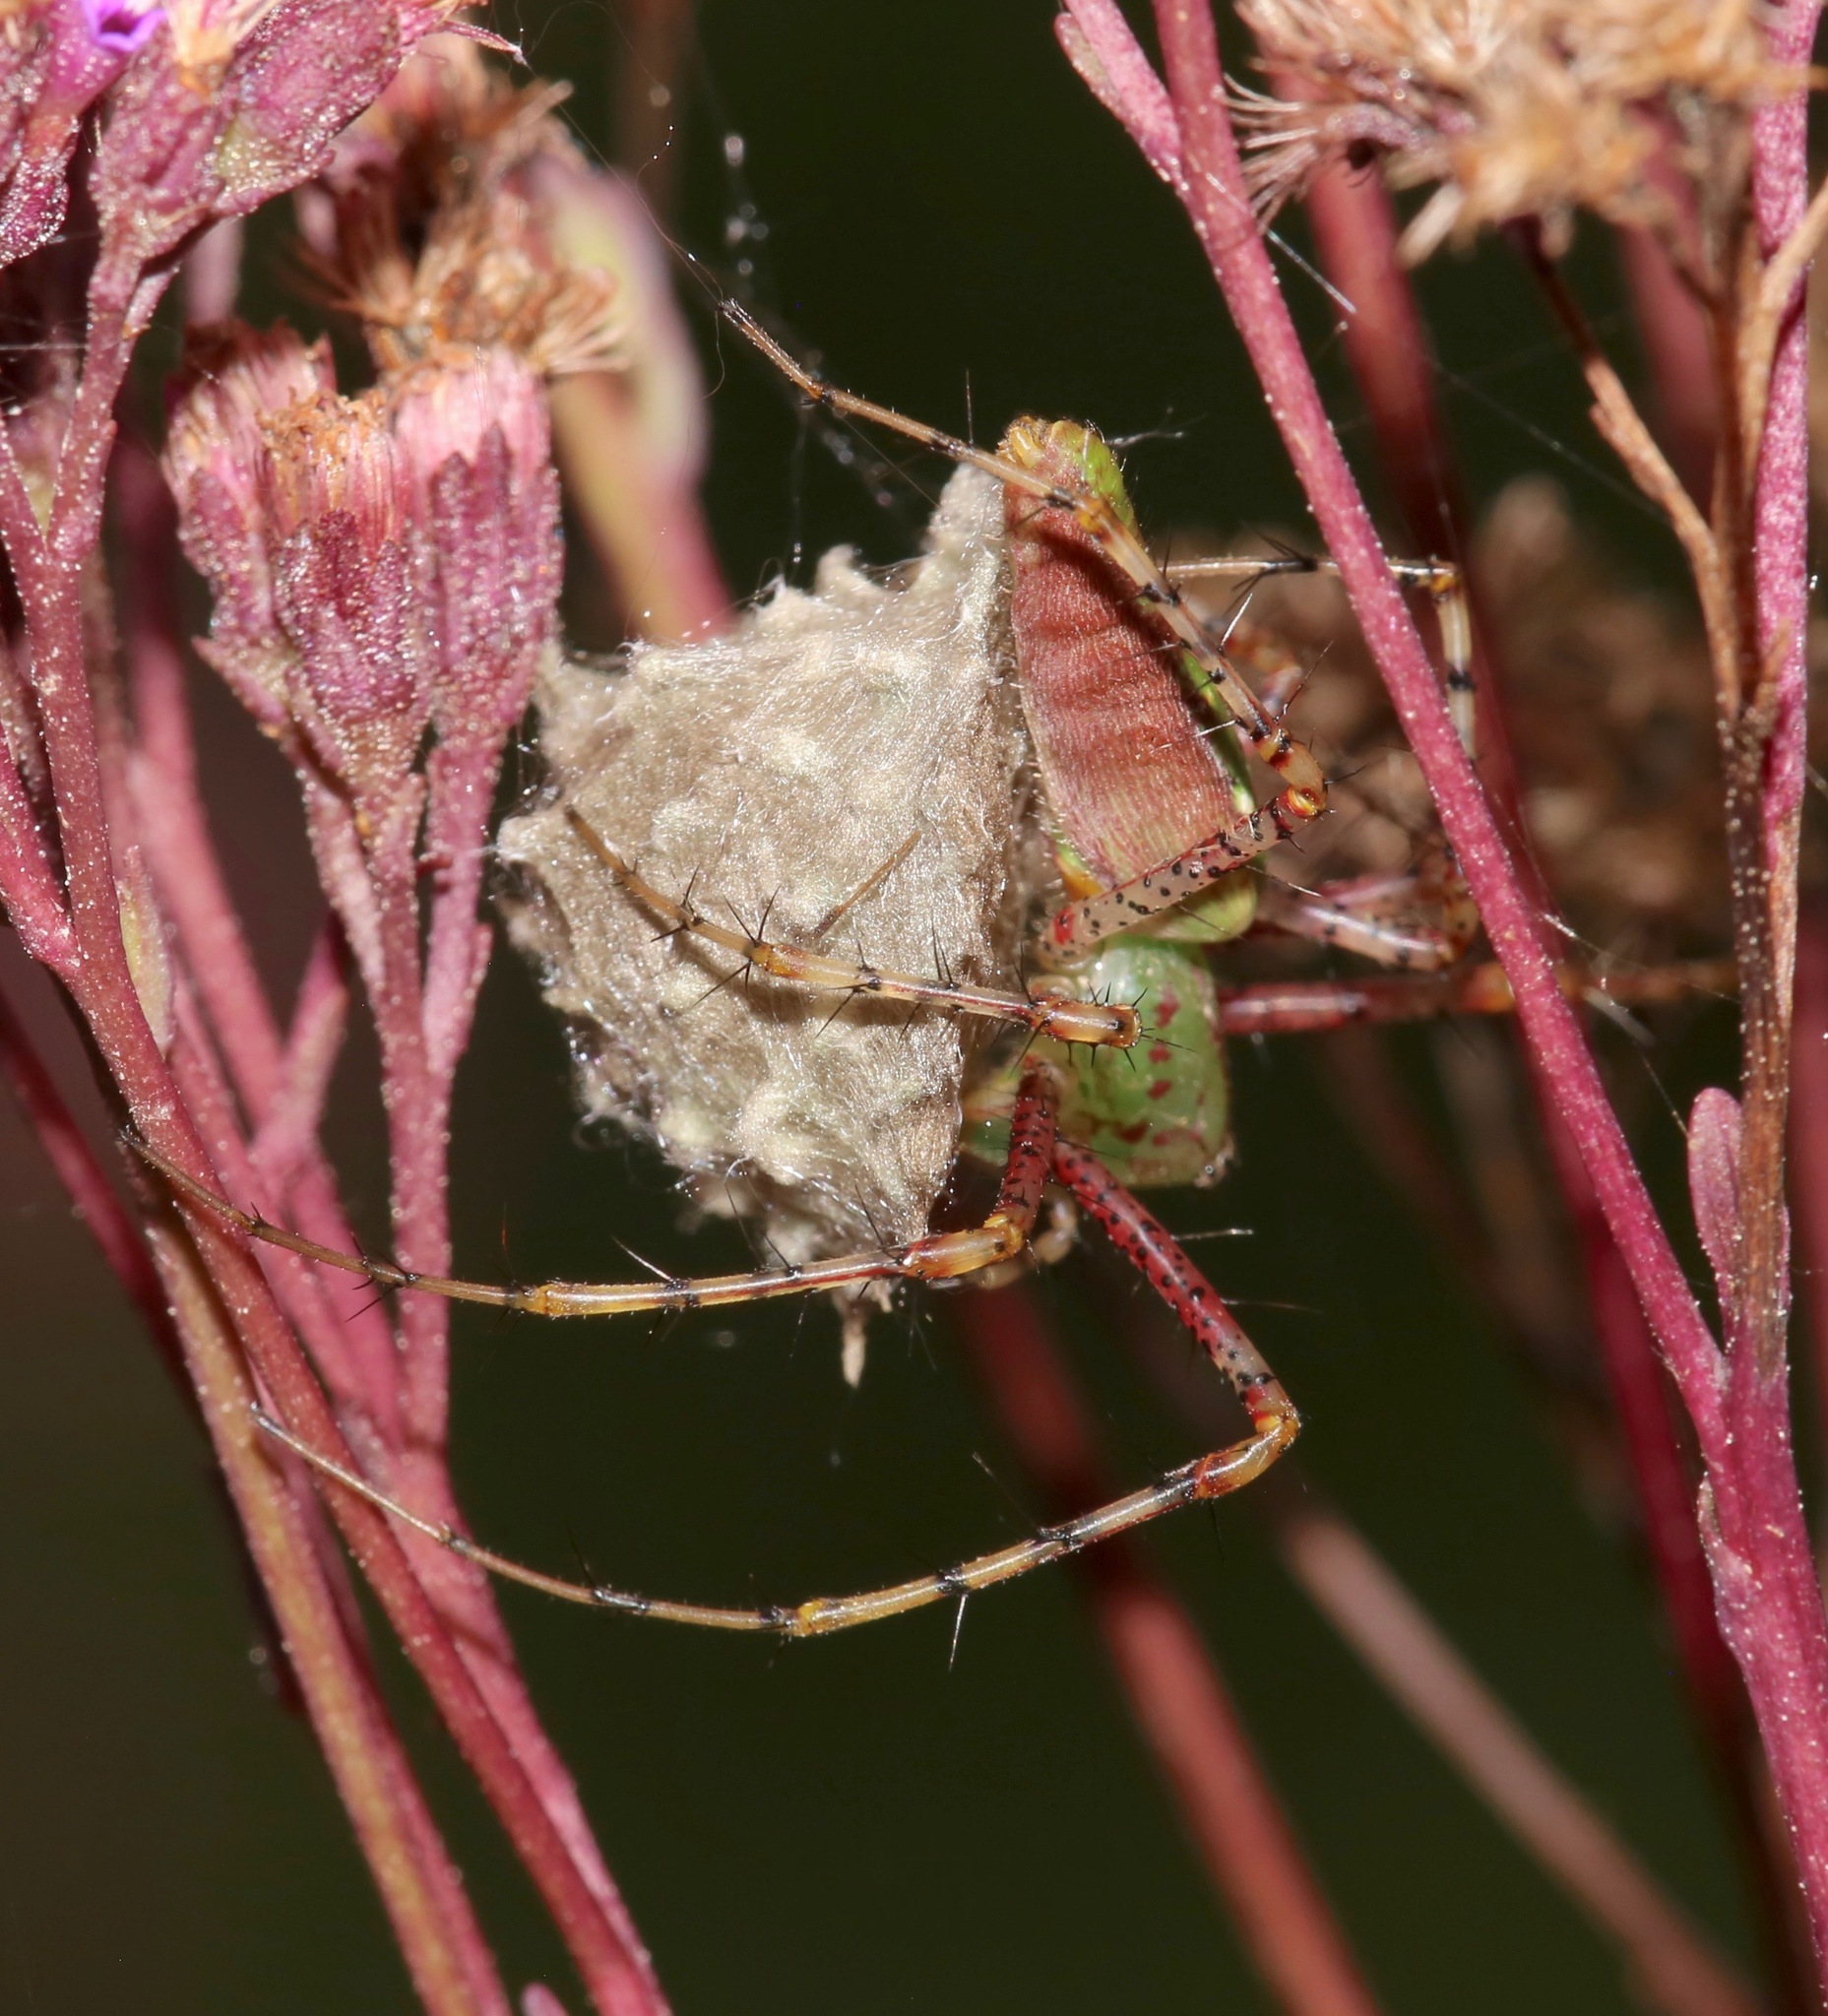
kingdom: Animalia
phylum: Arthropoda
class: Arachnida
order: Araneae
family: Oxyopidae
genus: Peucetia
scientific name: Peucetia viridans
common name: Lynx spiders
